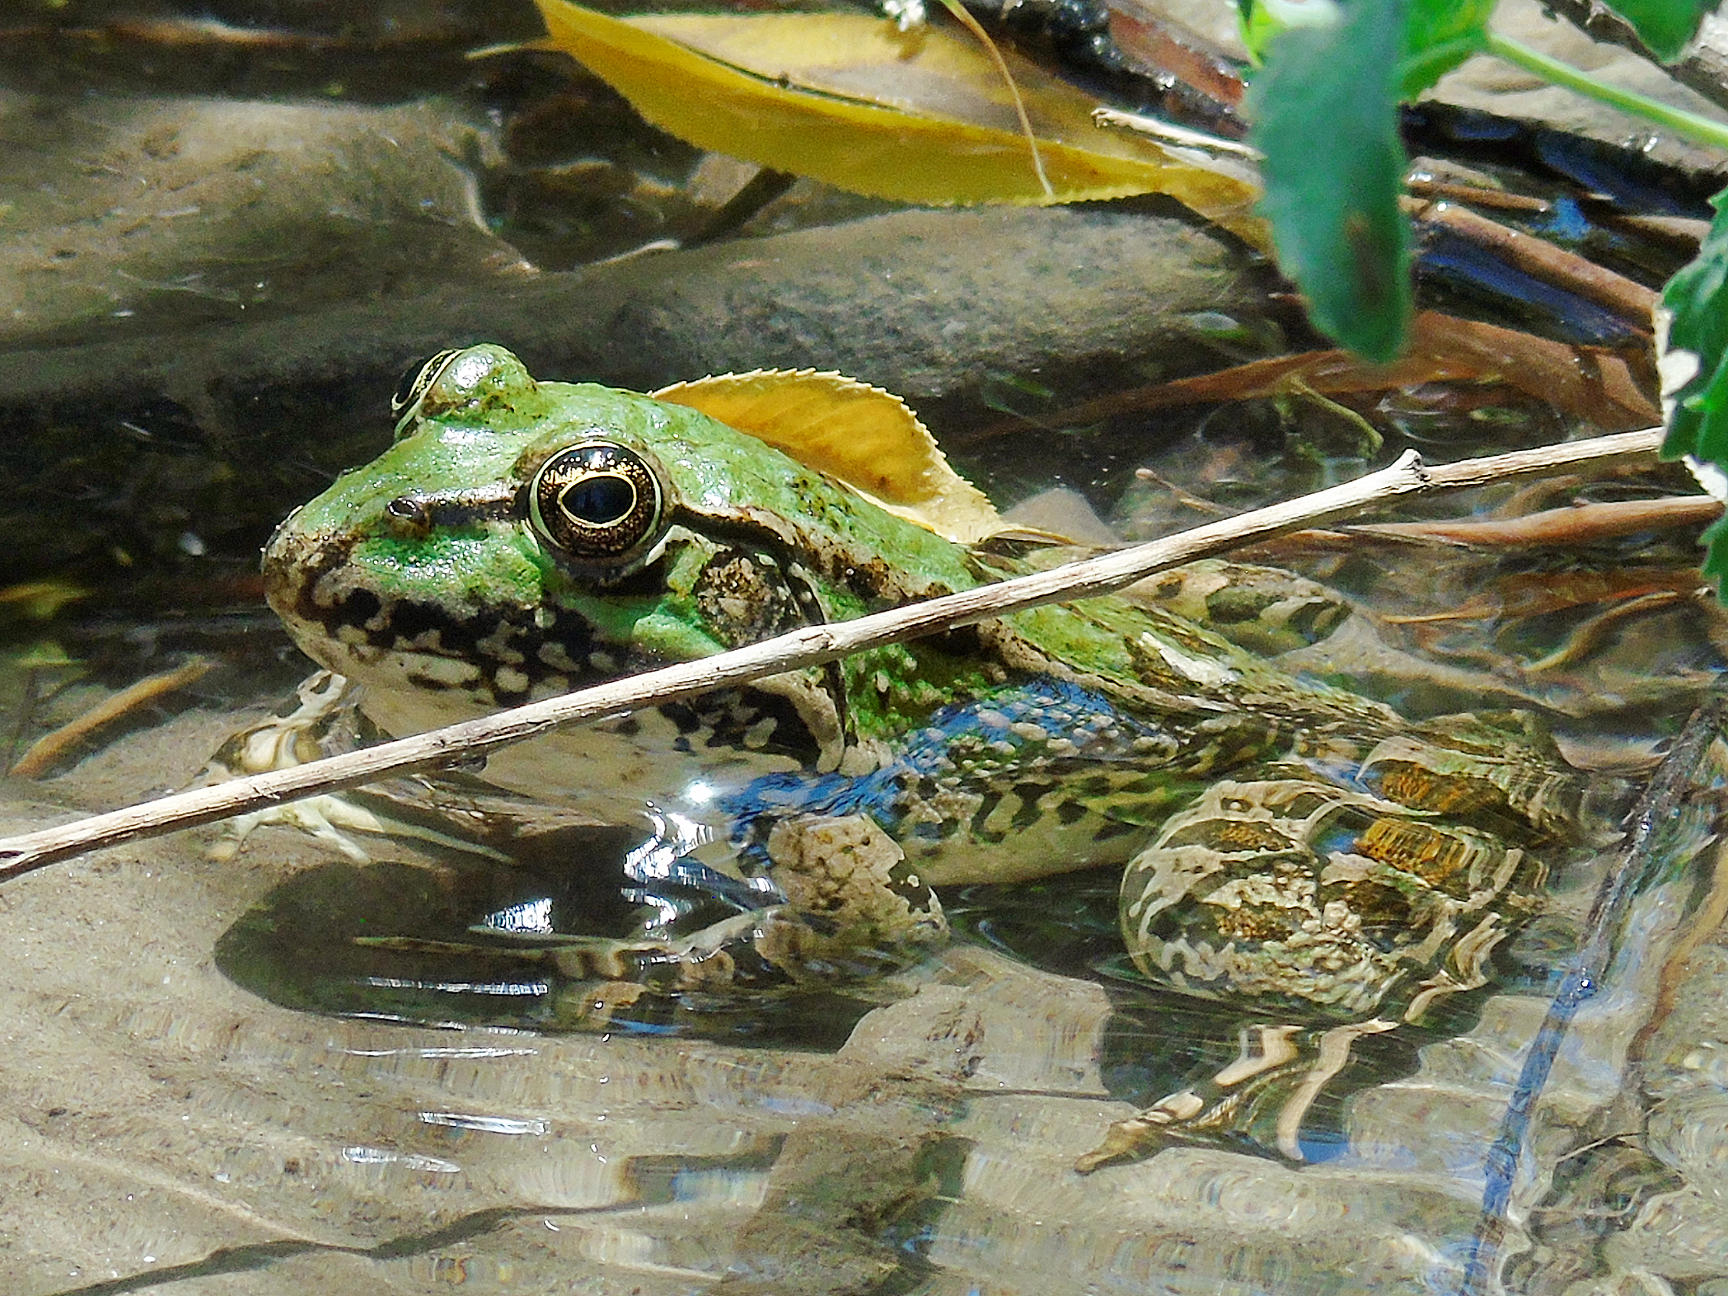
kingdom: Animalia
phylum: Chordata
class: Amphibia
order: Anura
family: Ranidae
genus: Pelophylax
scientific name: Pelophylax ridibundus
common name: Marsh frog
